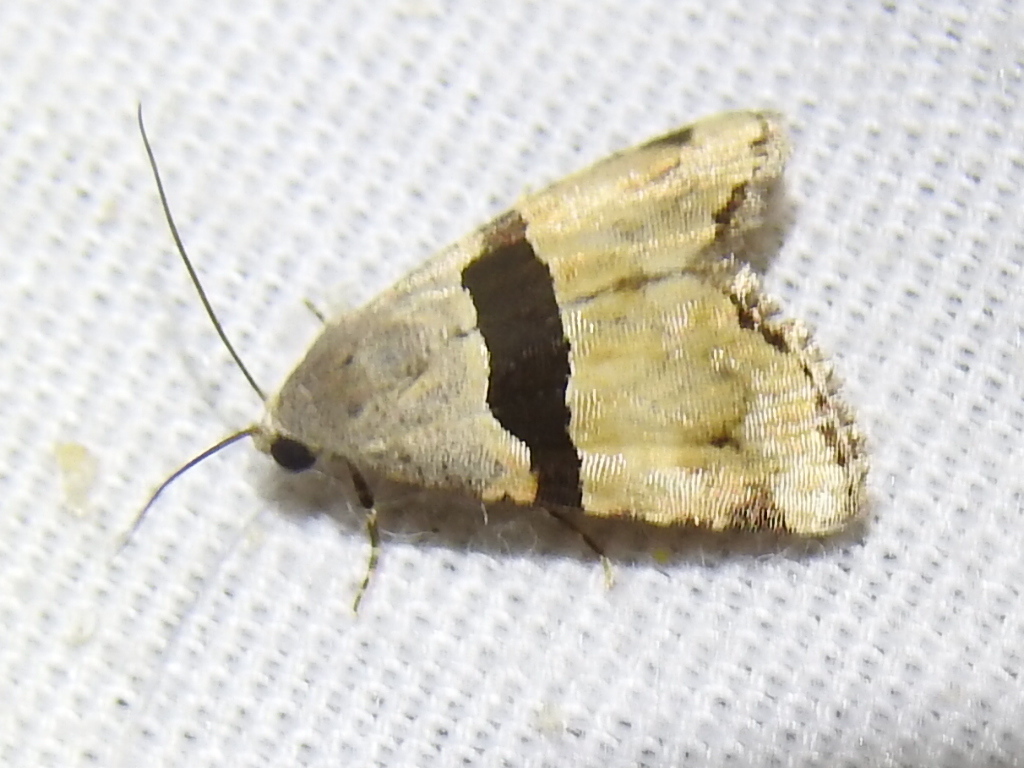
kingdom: Animalia
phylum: Arthropoda
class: Insecta
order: Lepidoptera
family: Noctuidae
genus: Cobubatha
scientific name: Cobubatha lixiva
